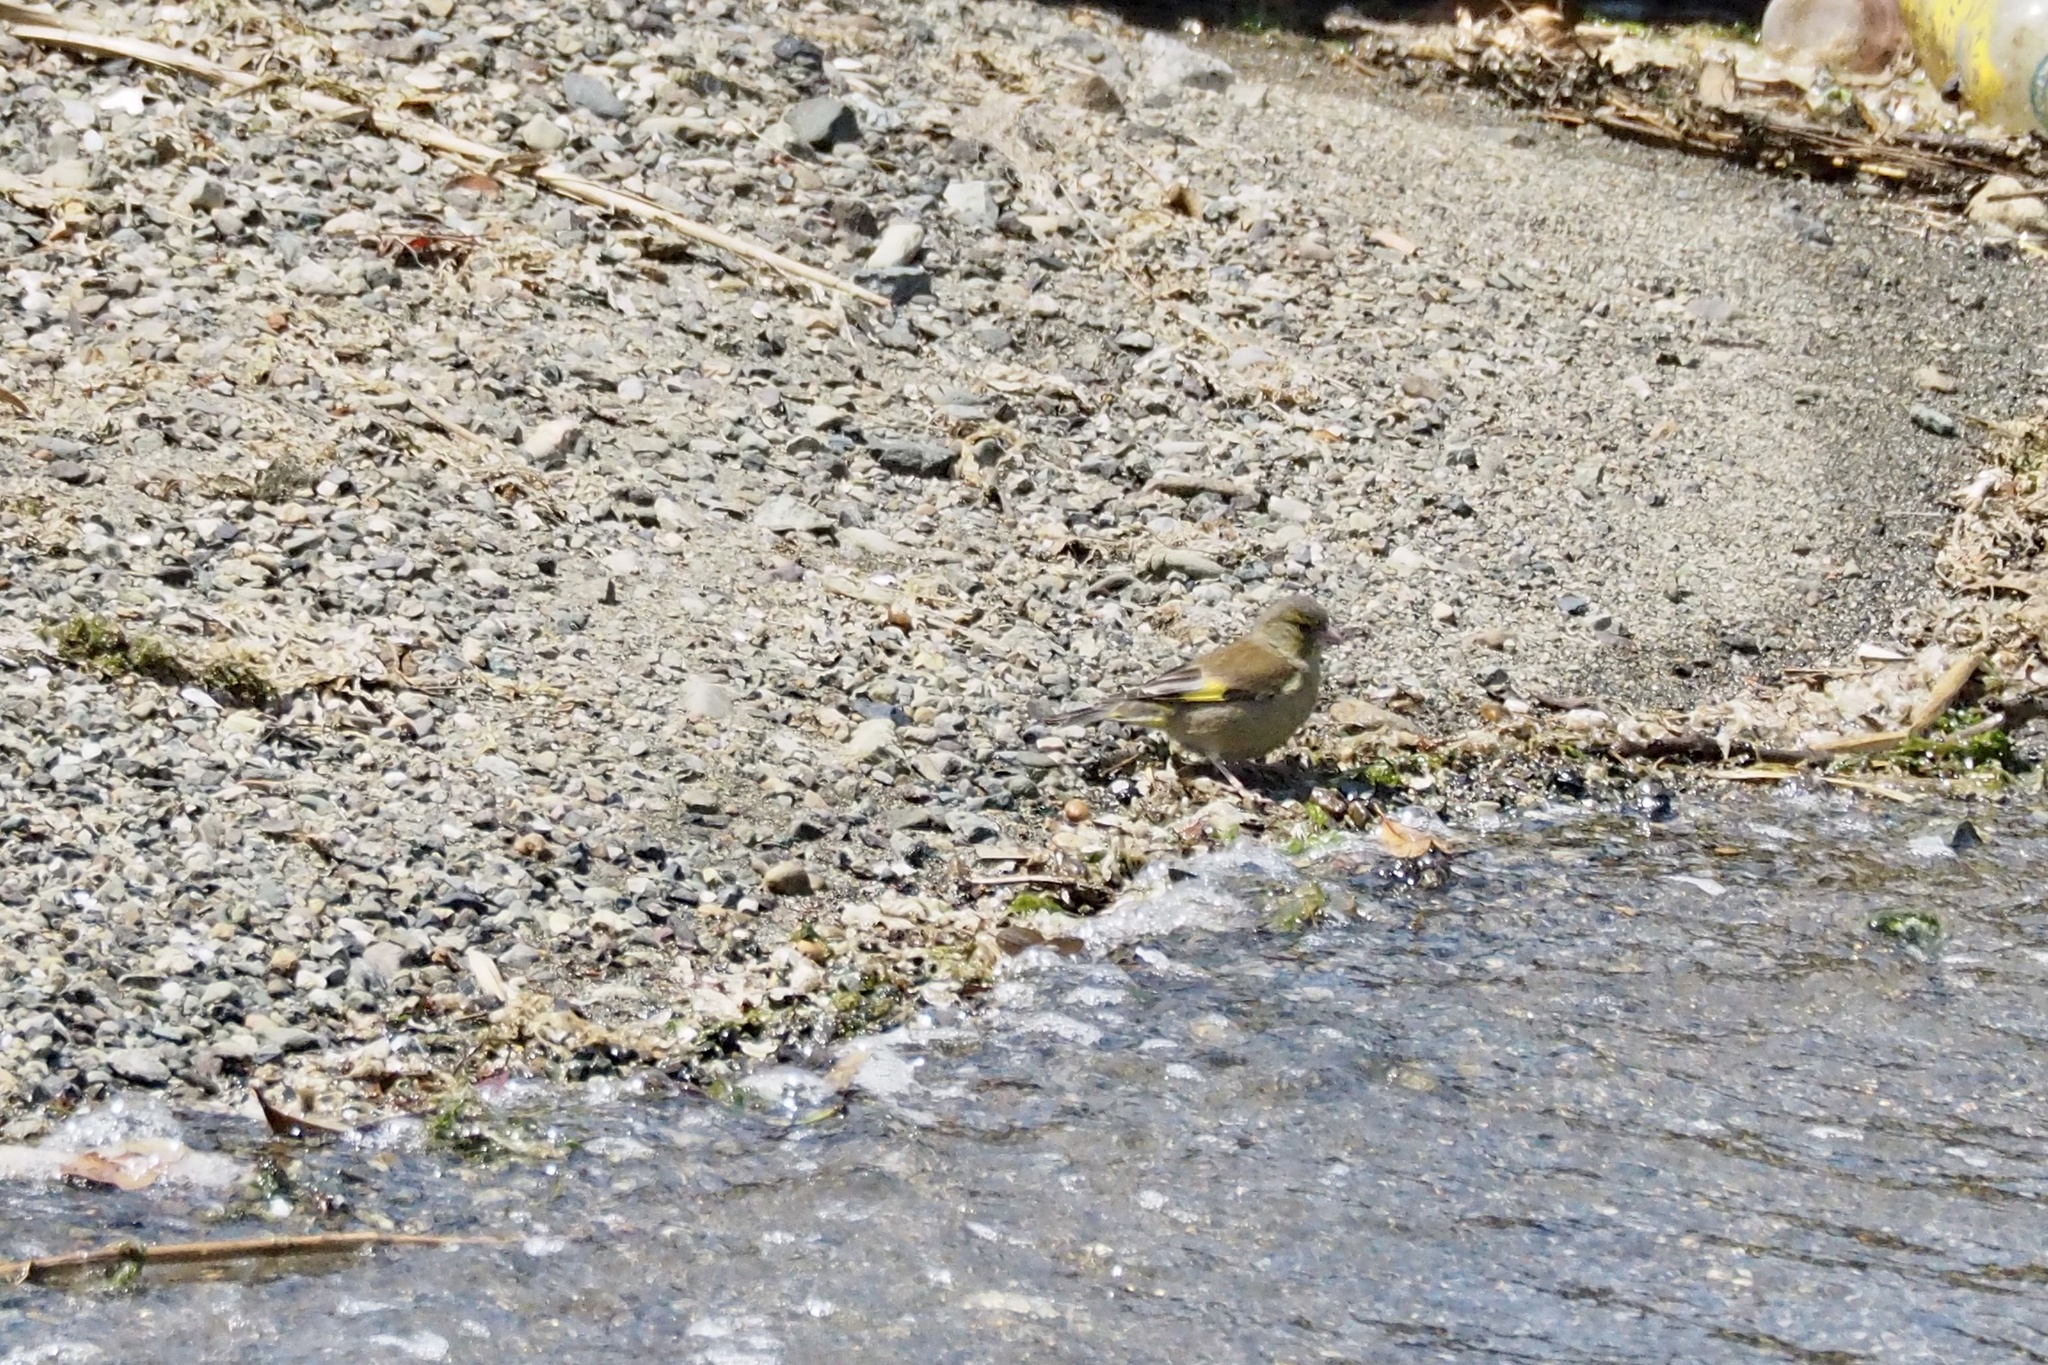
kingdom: Plantae
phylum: Tracheophyta
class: Liliopsida
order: Poales
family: Poaceae
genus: Chloris
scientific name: Chloris sinica
